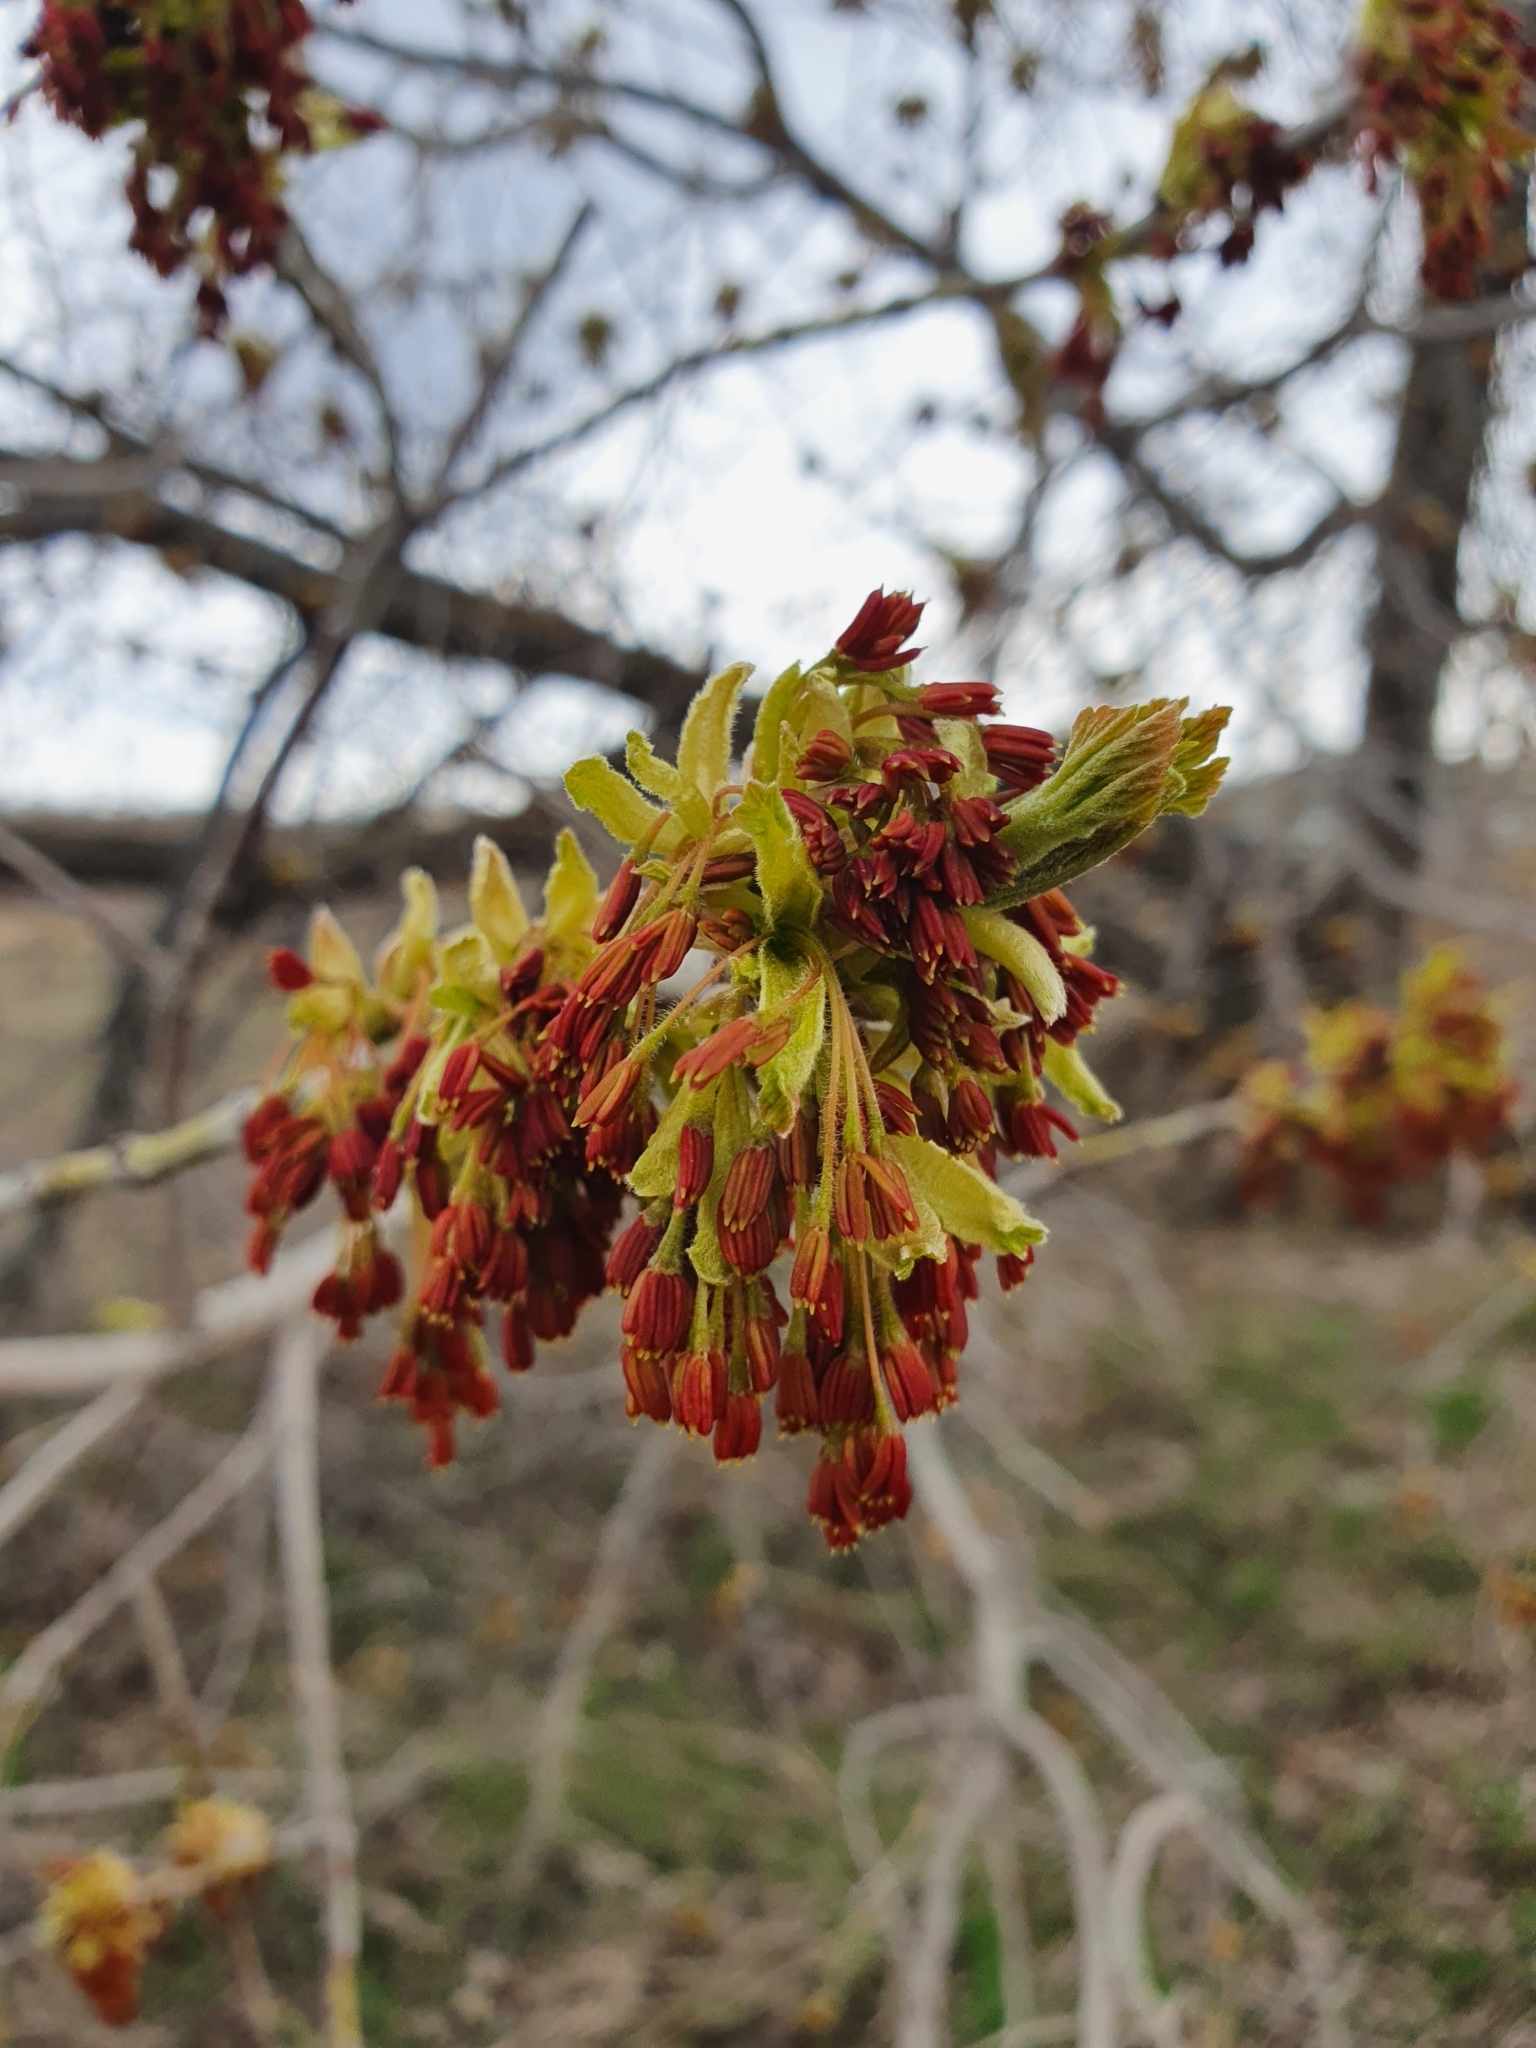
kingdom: Plantae
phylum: Tracheophyta
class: Magnoliopsida
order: Sapindales
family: Sapindaceae
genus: Acer
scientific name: Acer negundo
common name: Ashleaf maple
